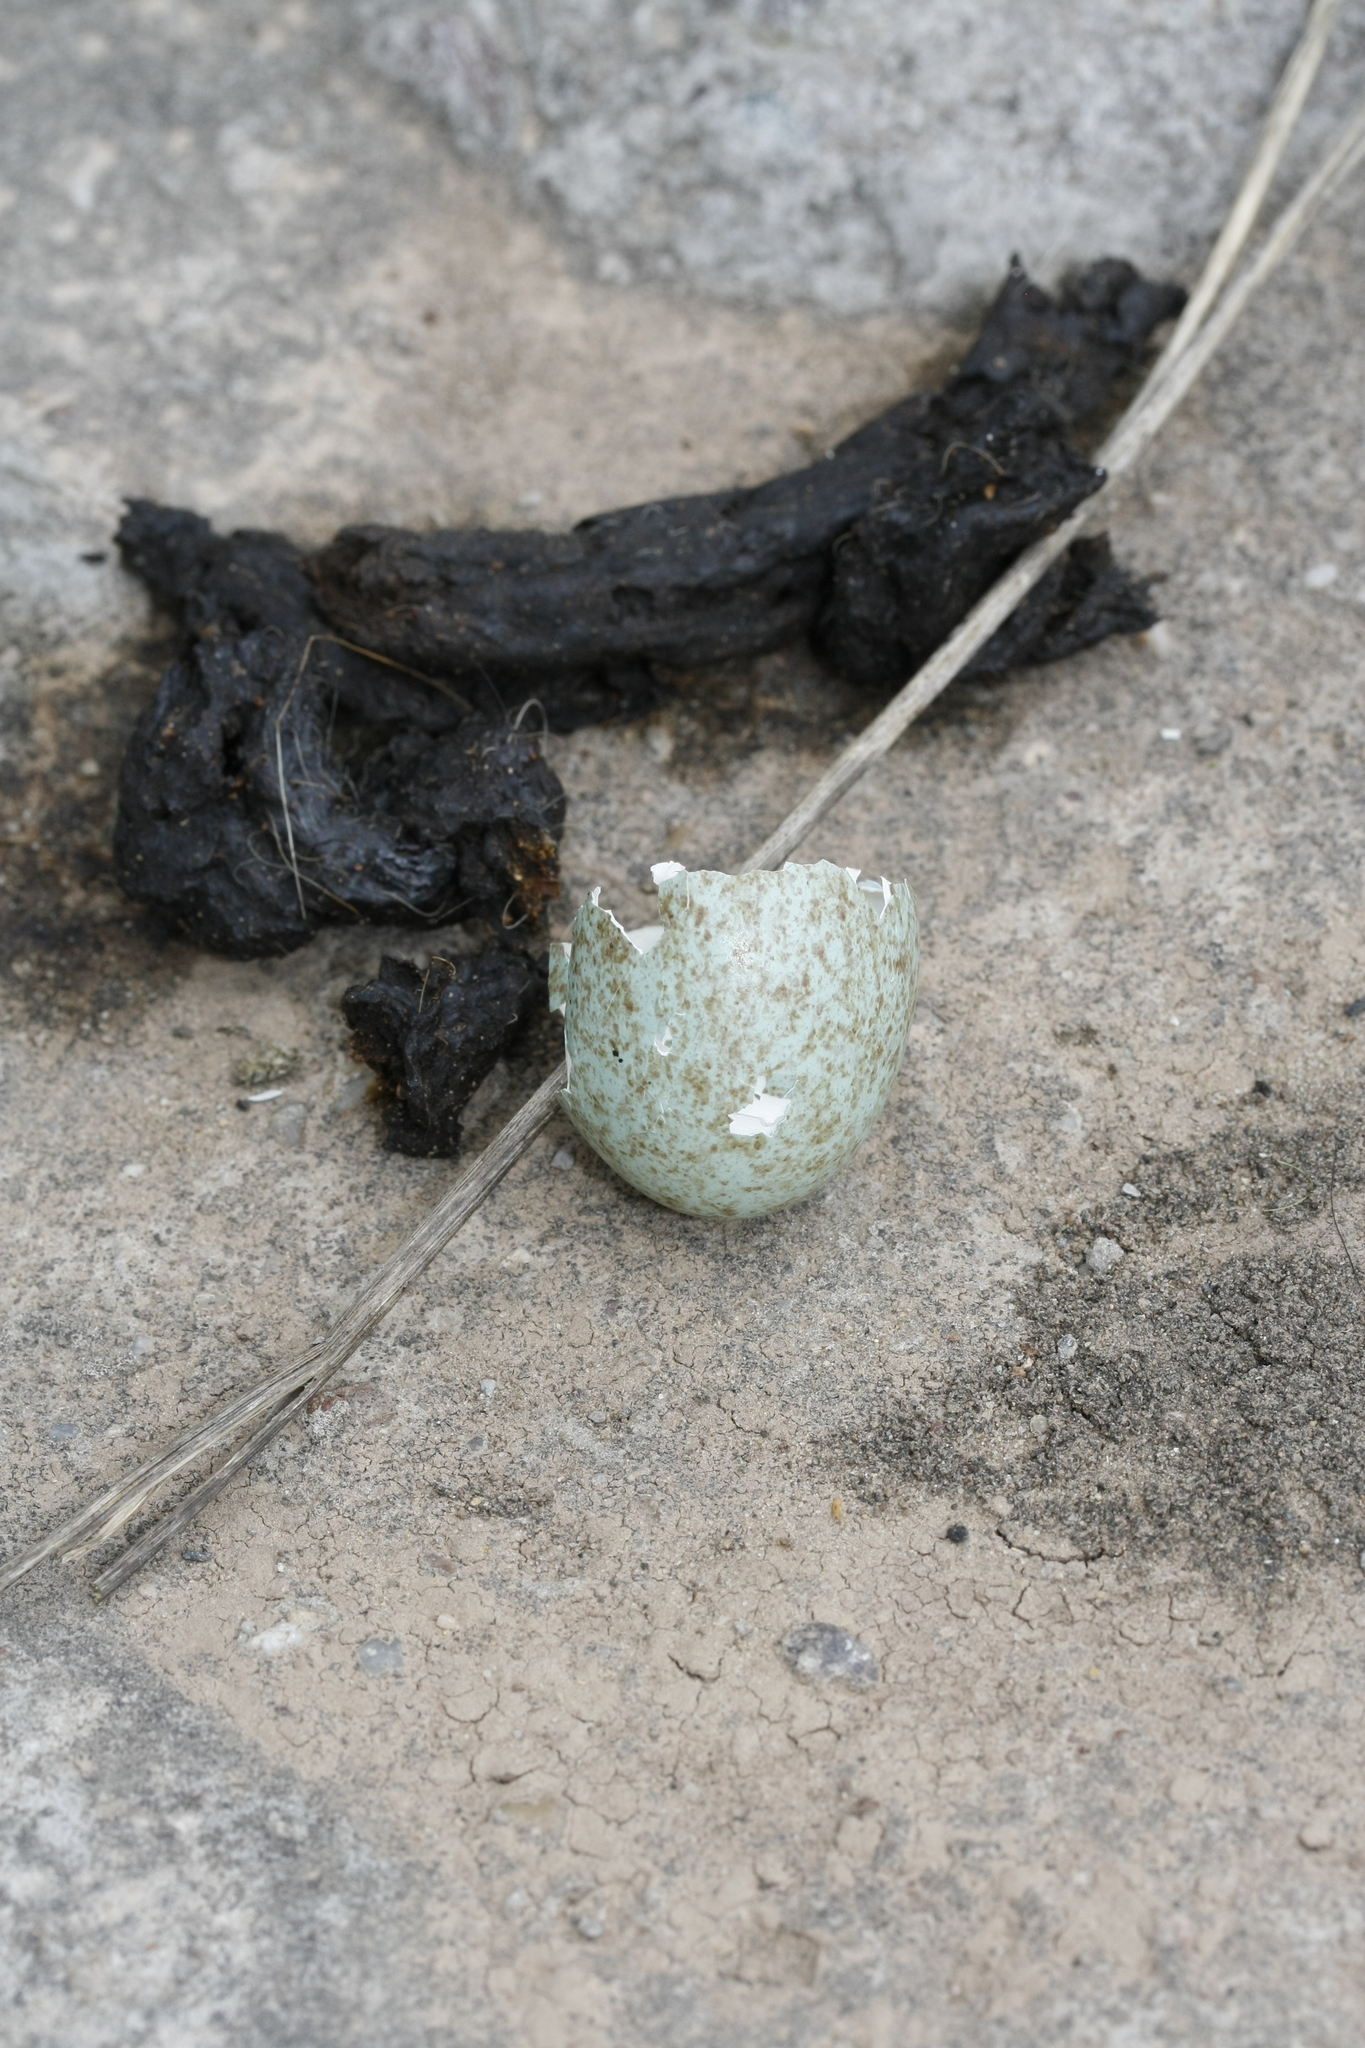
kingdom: Animalia
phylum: Chordata
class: Aves
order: Passeriformes
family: Turdidae
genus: Turdus
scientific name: Turdus merula
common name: Common blackbird
